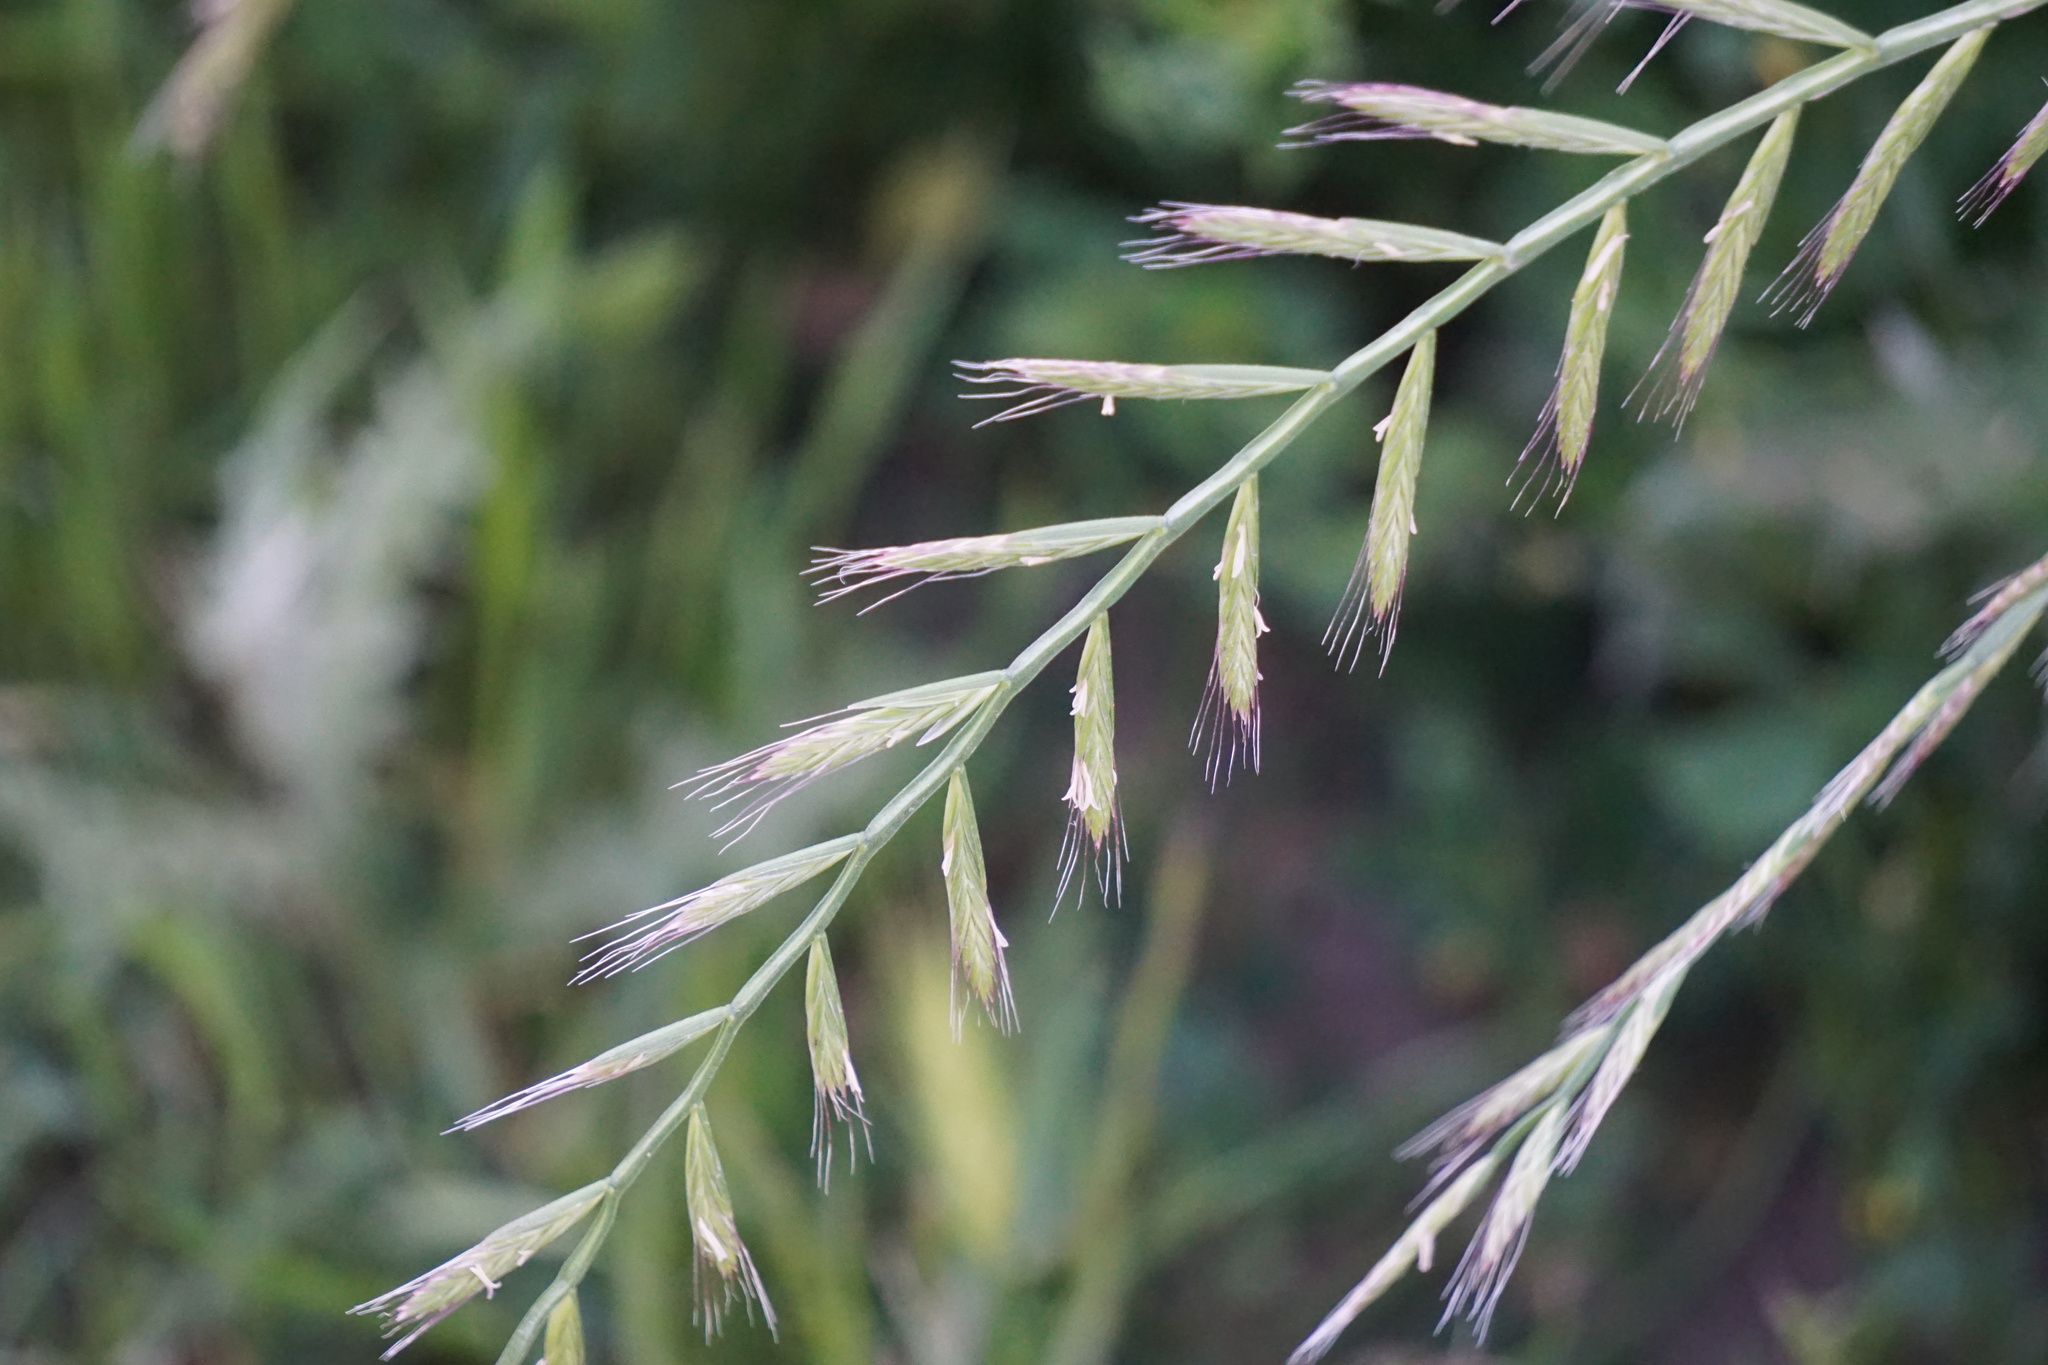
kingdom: Plantae
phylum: Tracheophyta
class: Liliopsida
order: Poales
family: Poaceae
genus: Lolium
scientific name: Lolium perenne
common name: Perennial ryegrass
